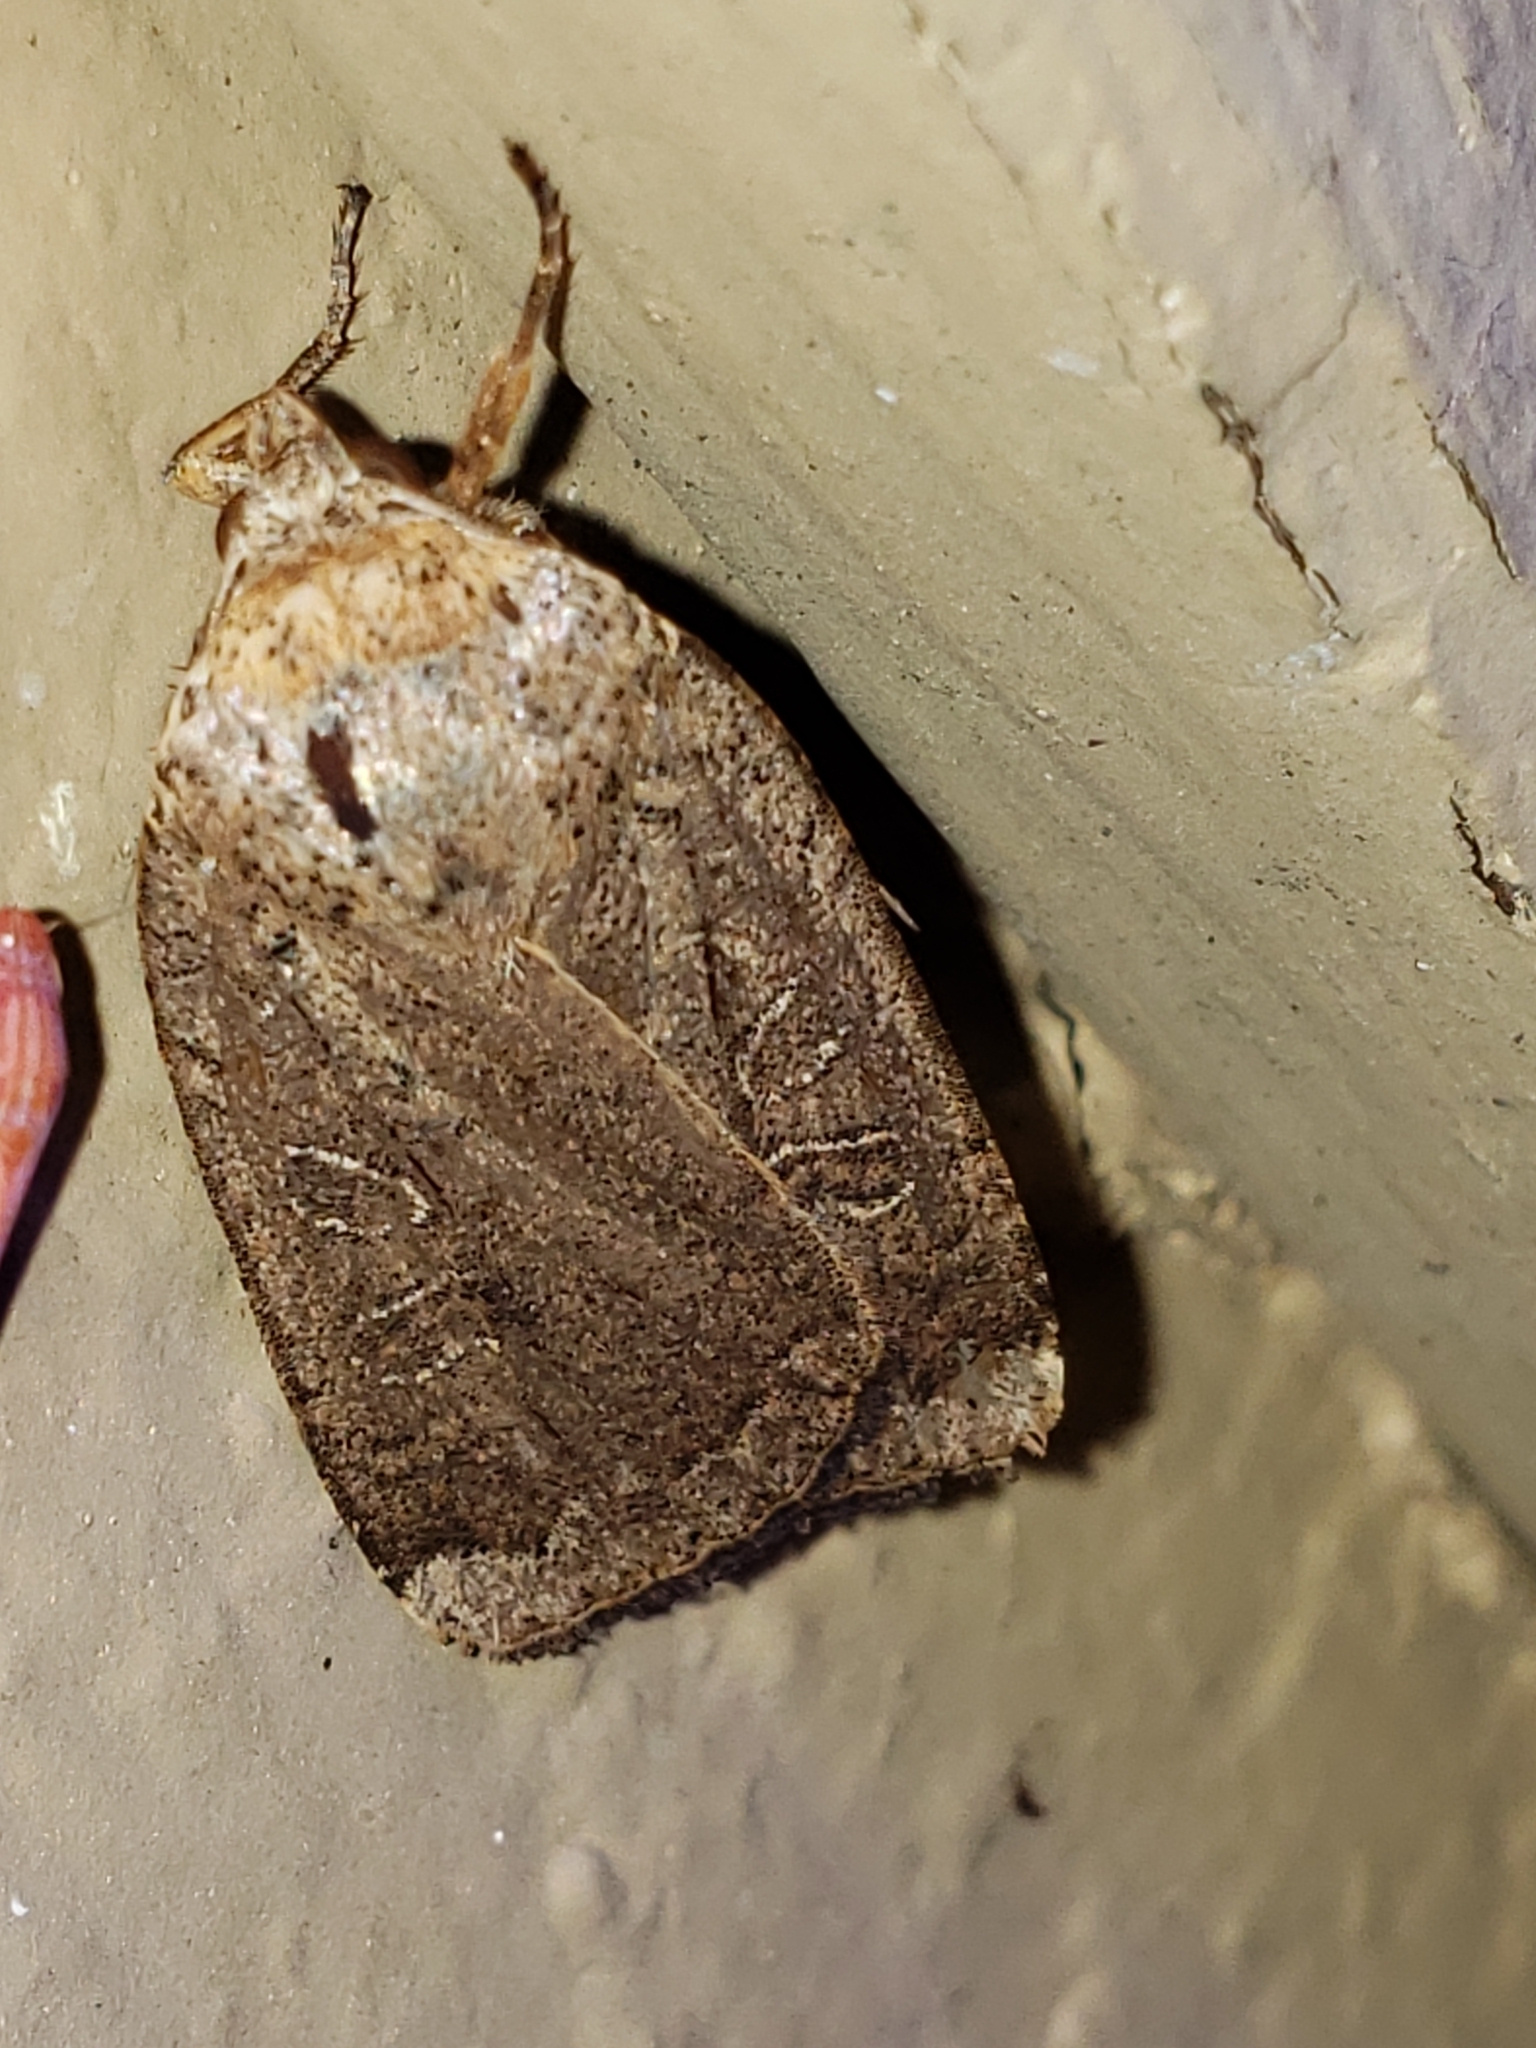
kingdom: Animalia
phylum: Arthropoda
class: Insecta
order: Lepidoptera
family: Noctuidae
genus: Abagrotis
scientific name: Abagrotis alternata
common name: Greater red dart
